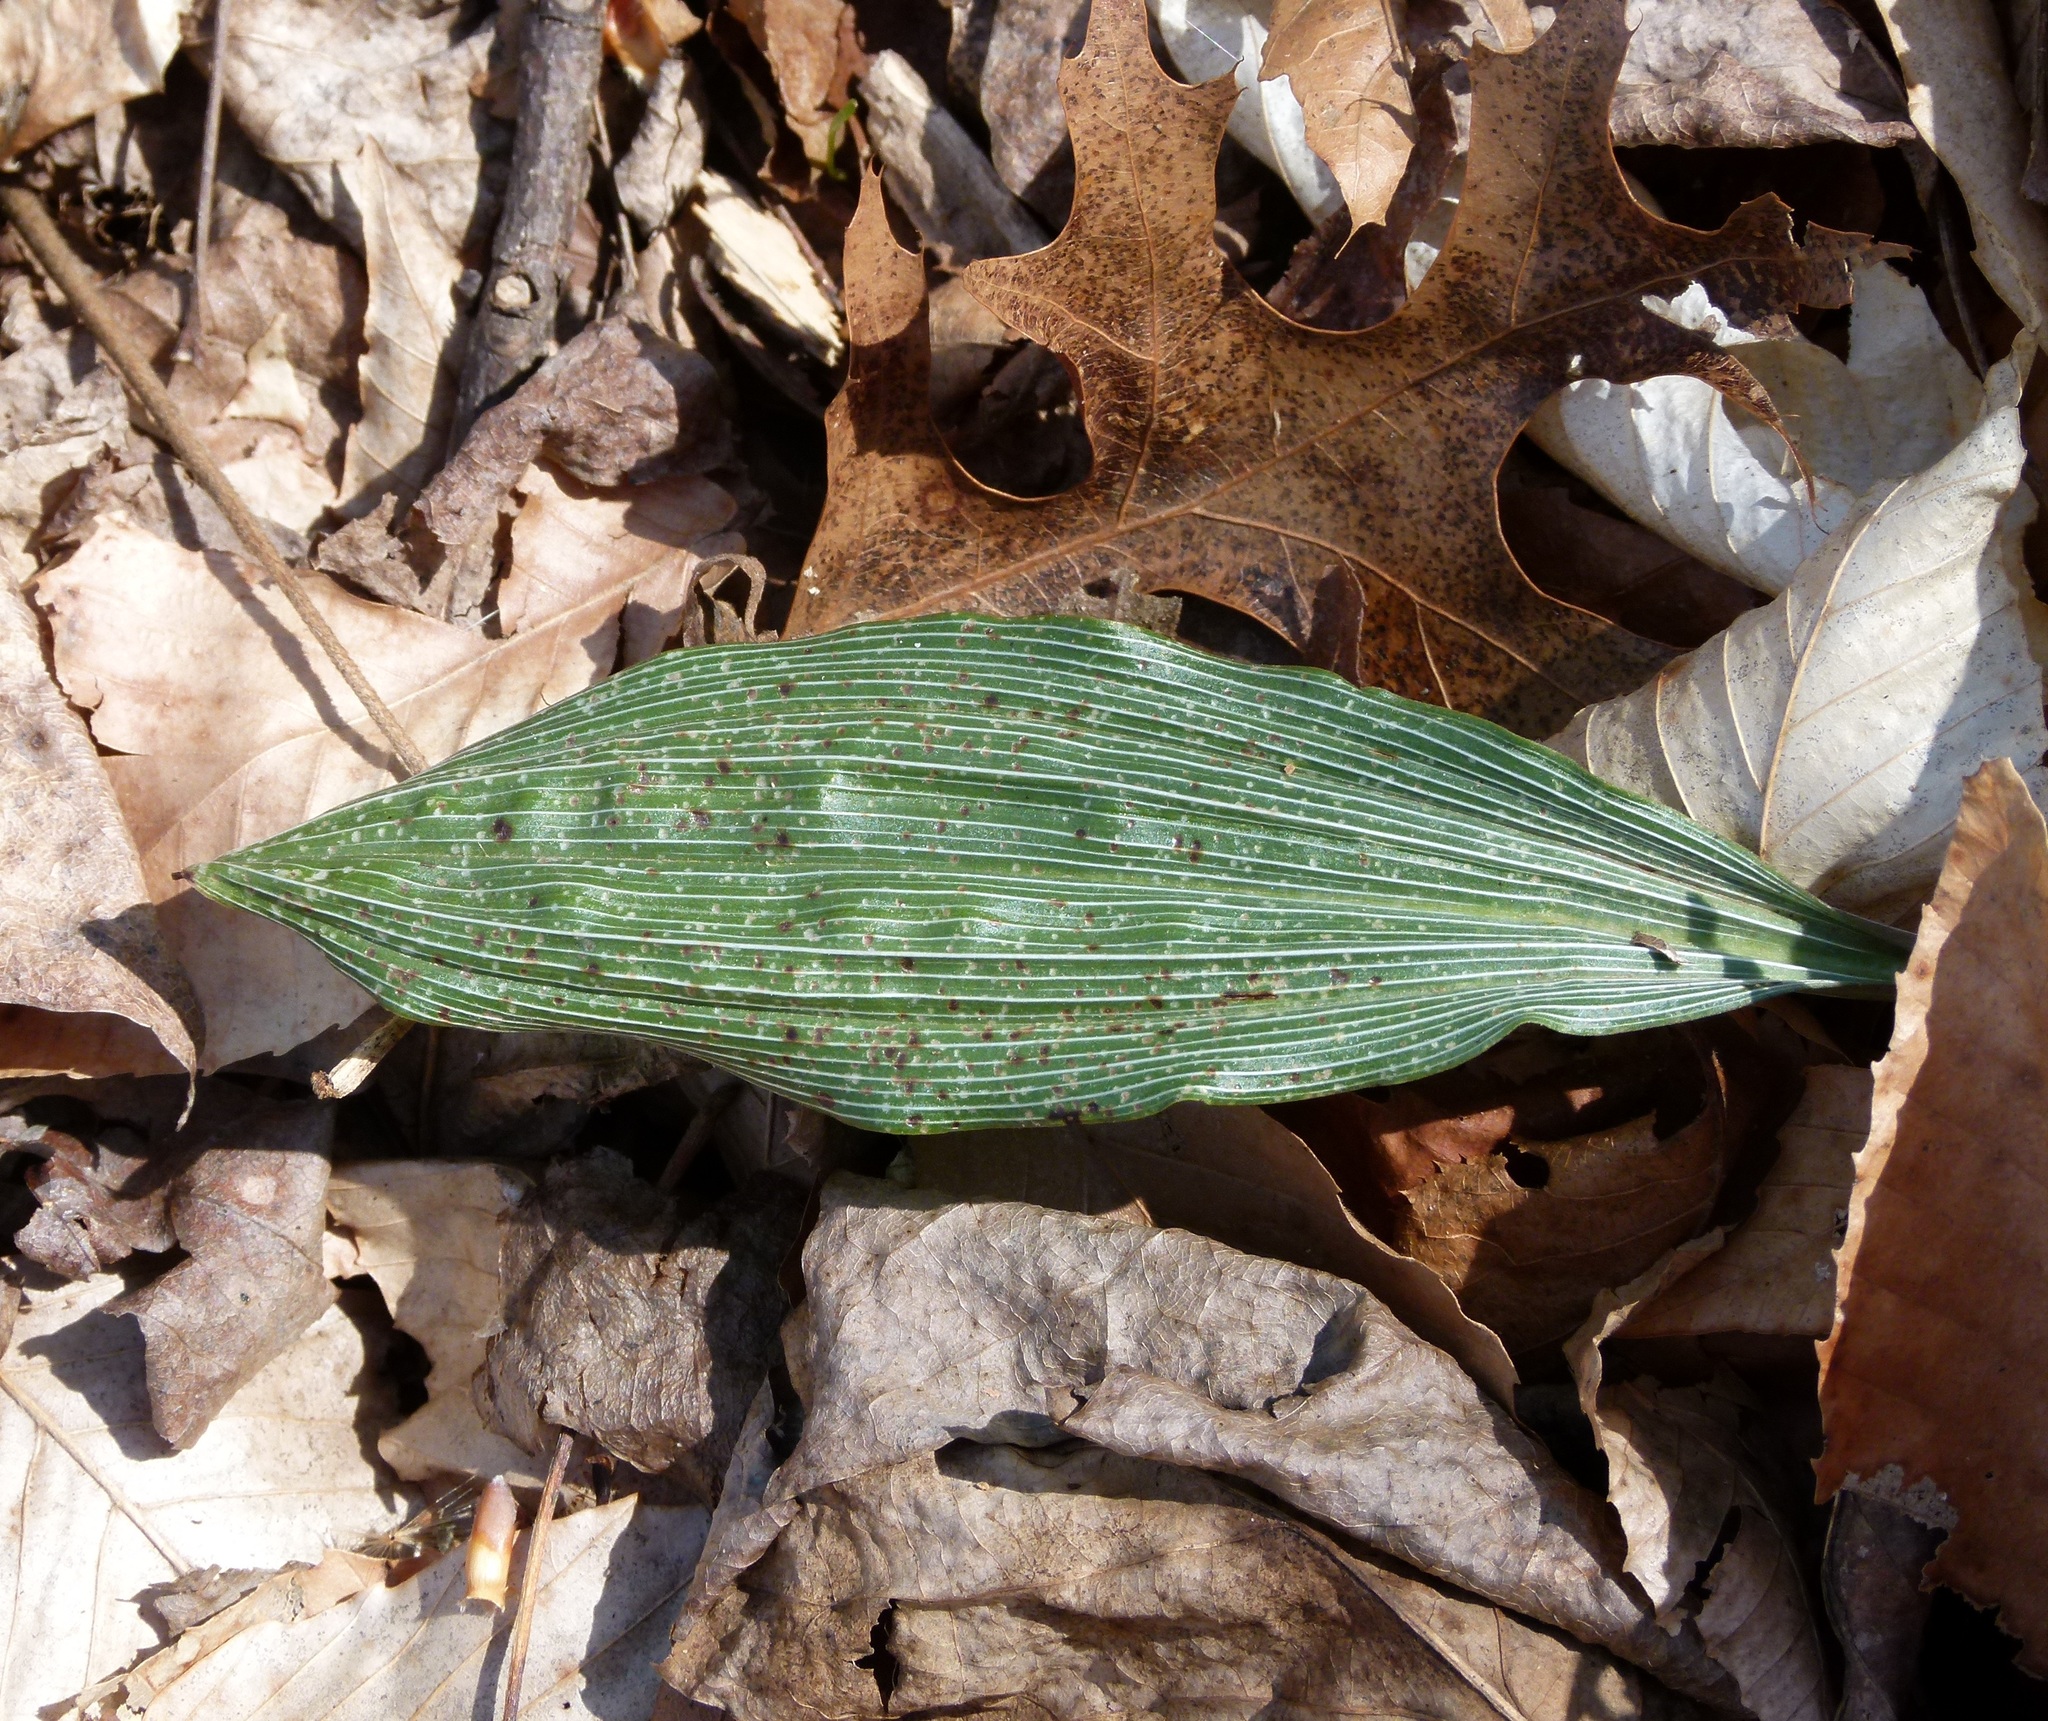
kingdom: Plantae
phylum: Tracheophyta
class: Liliopsida
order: Asparagales
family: Orchidaceae
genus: Aplectrum
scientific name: Aplectrum hyemale
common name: Adam-and-eve
